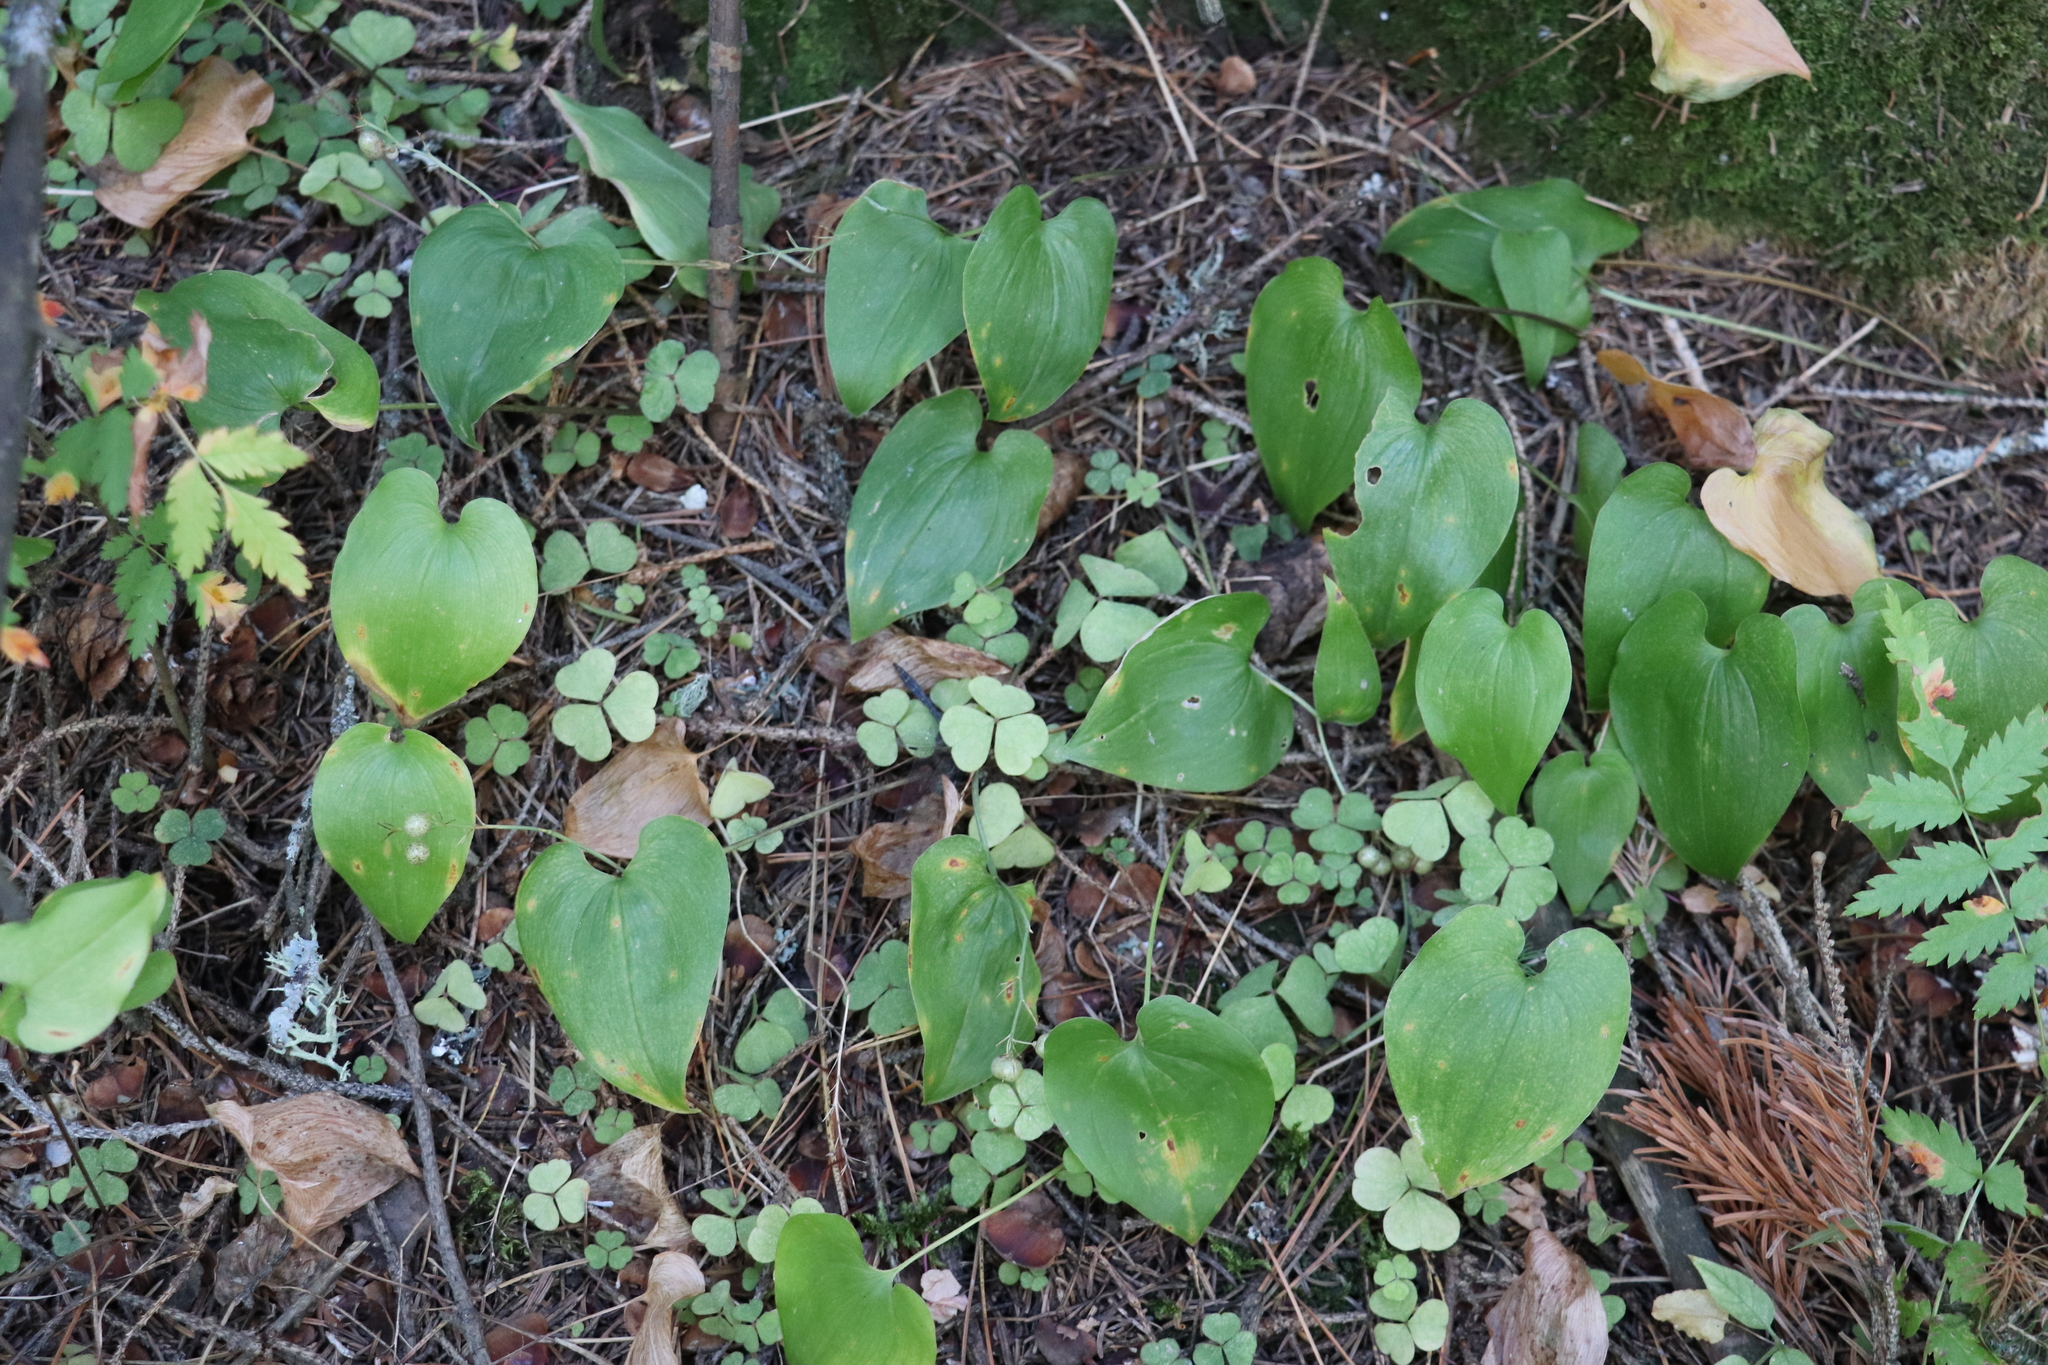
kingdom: Plantae
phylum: Tracheophyta
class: Liliopsida
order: Asparagales
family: Asparagaceae
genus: Maianthemum
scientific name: Maianthemum bifolium
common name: May lily
